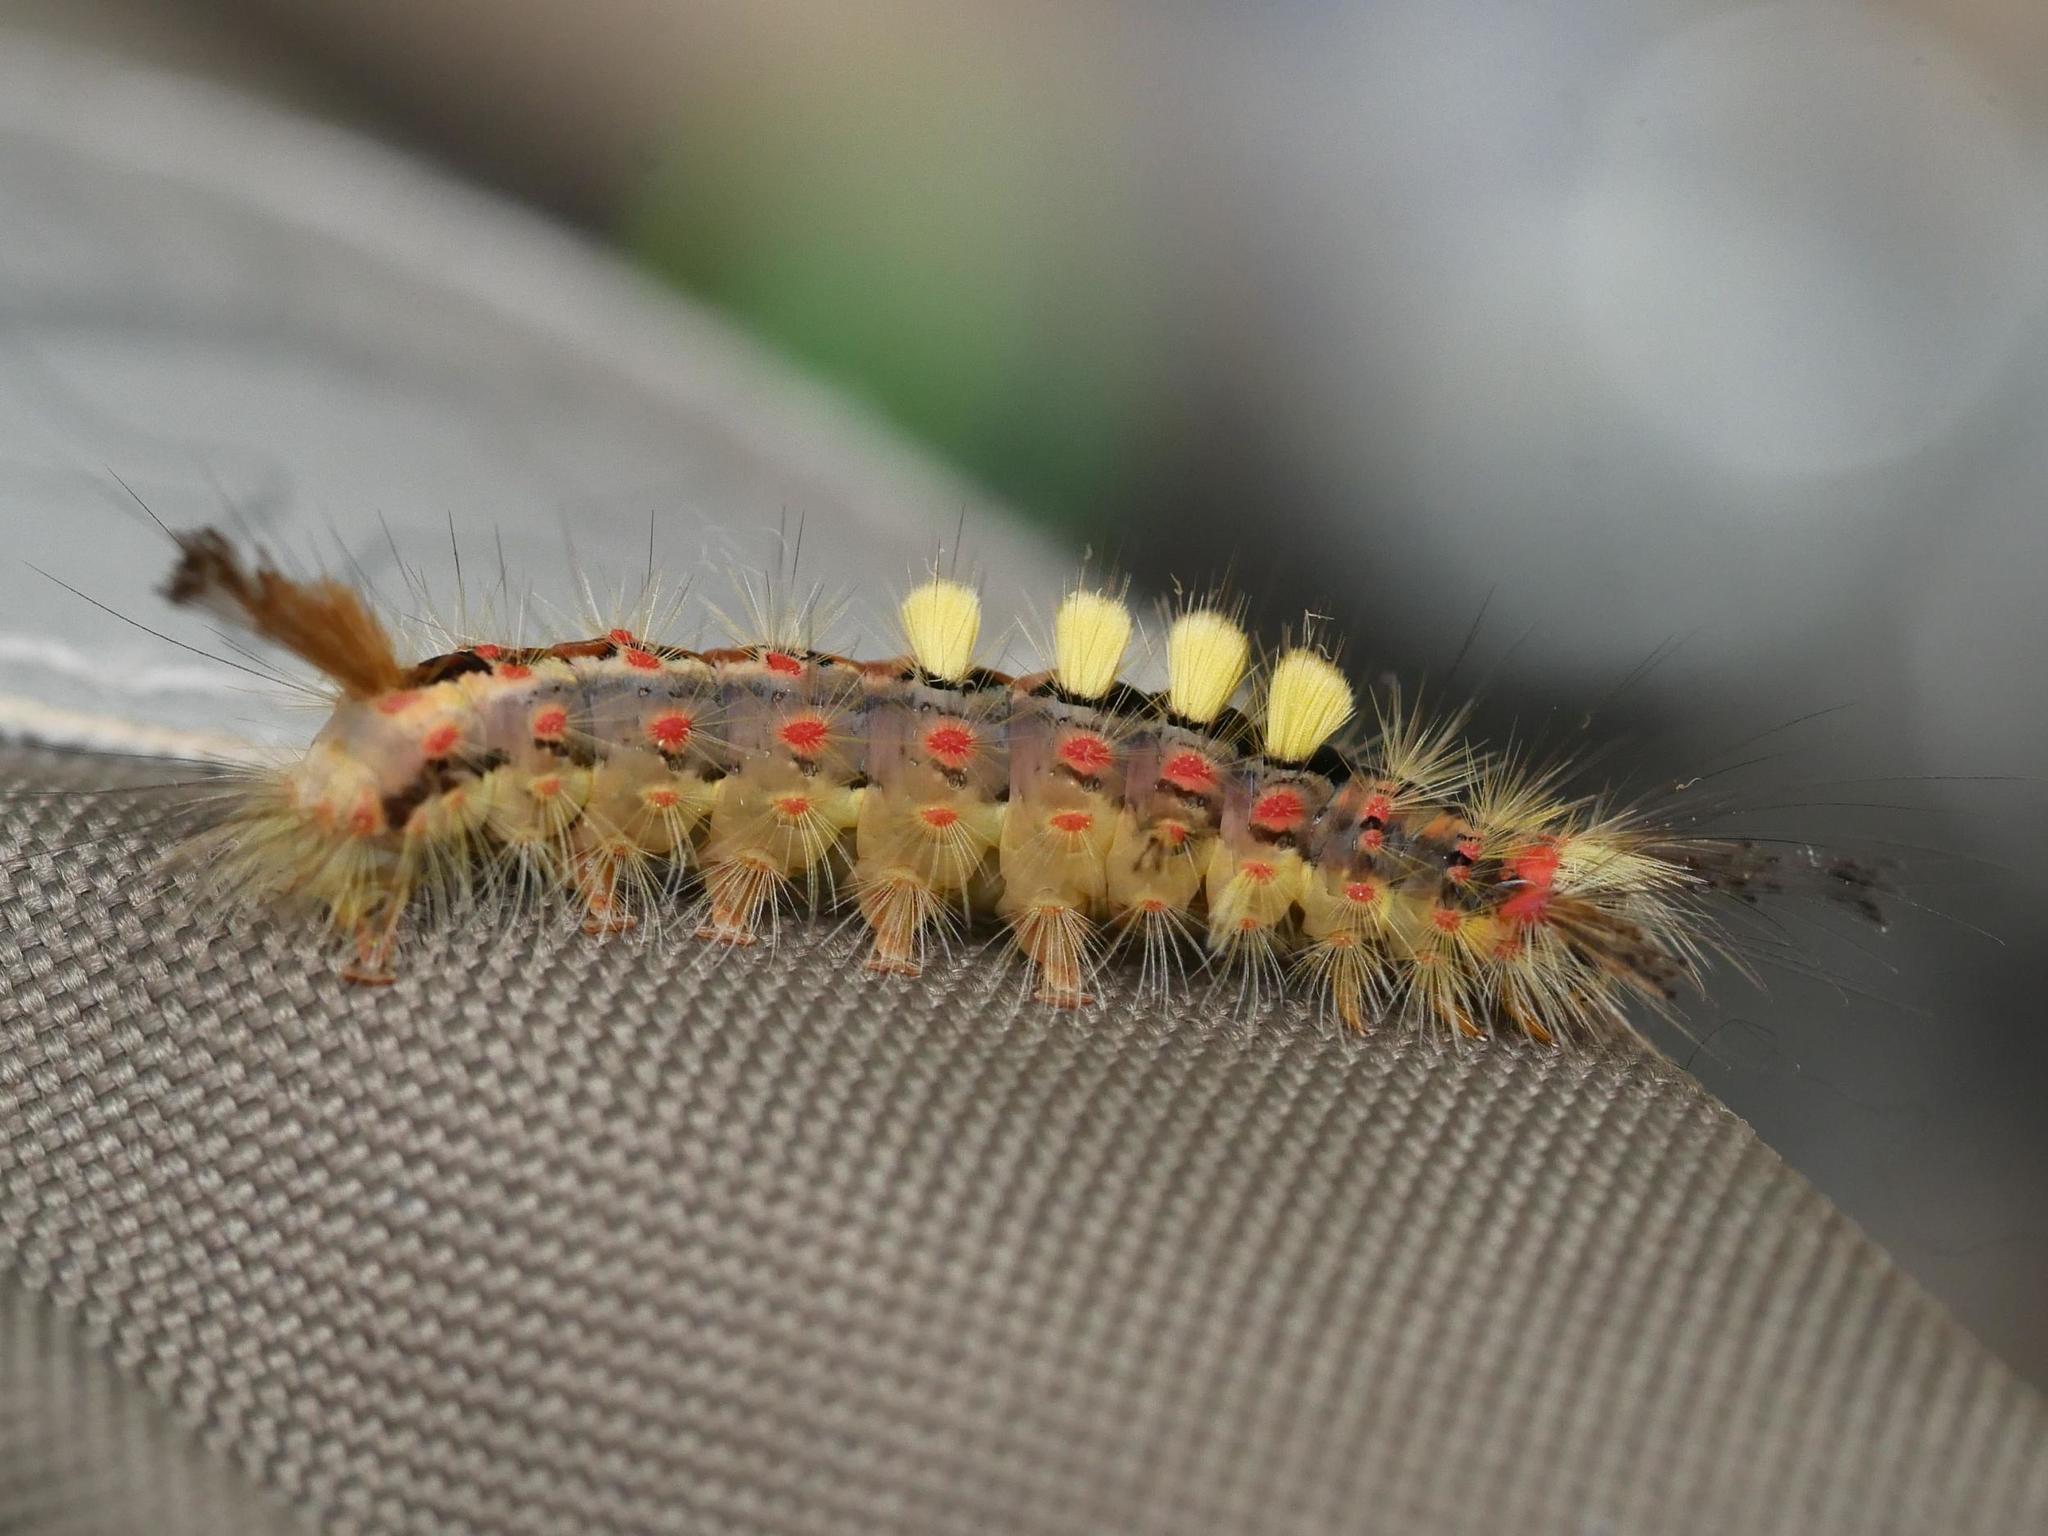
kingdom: Animalia
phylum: Arthropoda
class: Insecta
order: Lepidoptera
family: Erebidae
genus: Orgyia
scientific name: Orgyia antiqua
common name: Vapourer
